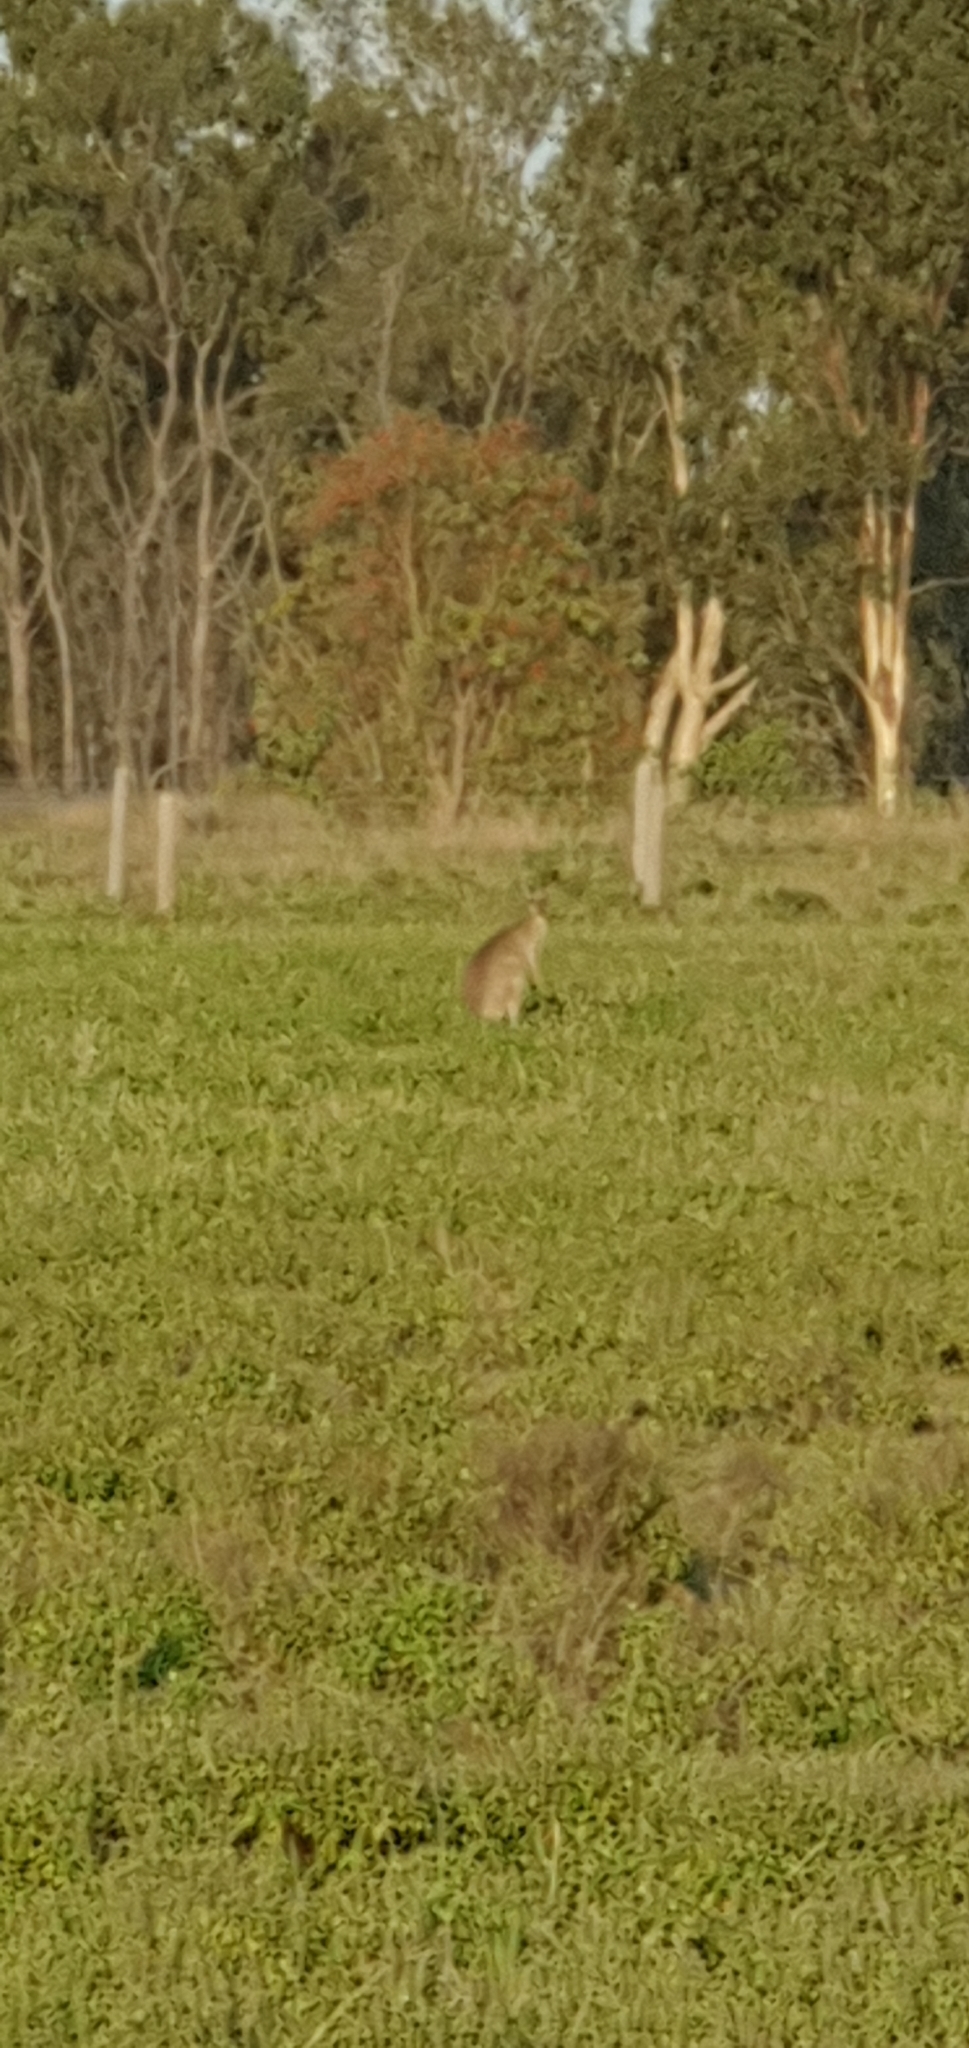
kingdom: Animalia
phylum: Chordata
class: Mammalia
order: Diprotodontia
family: Macropodidae
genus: Macropus
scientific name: Macropus giganteus
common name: Eastern grey kangaroo
